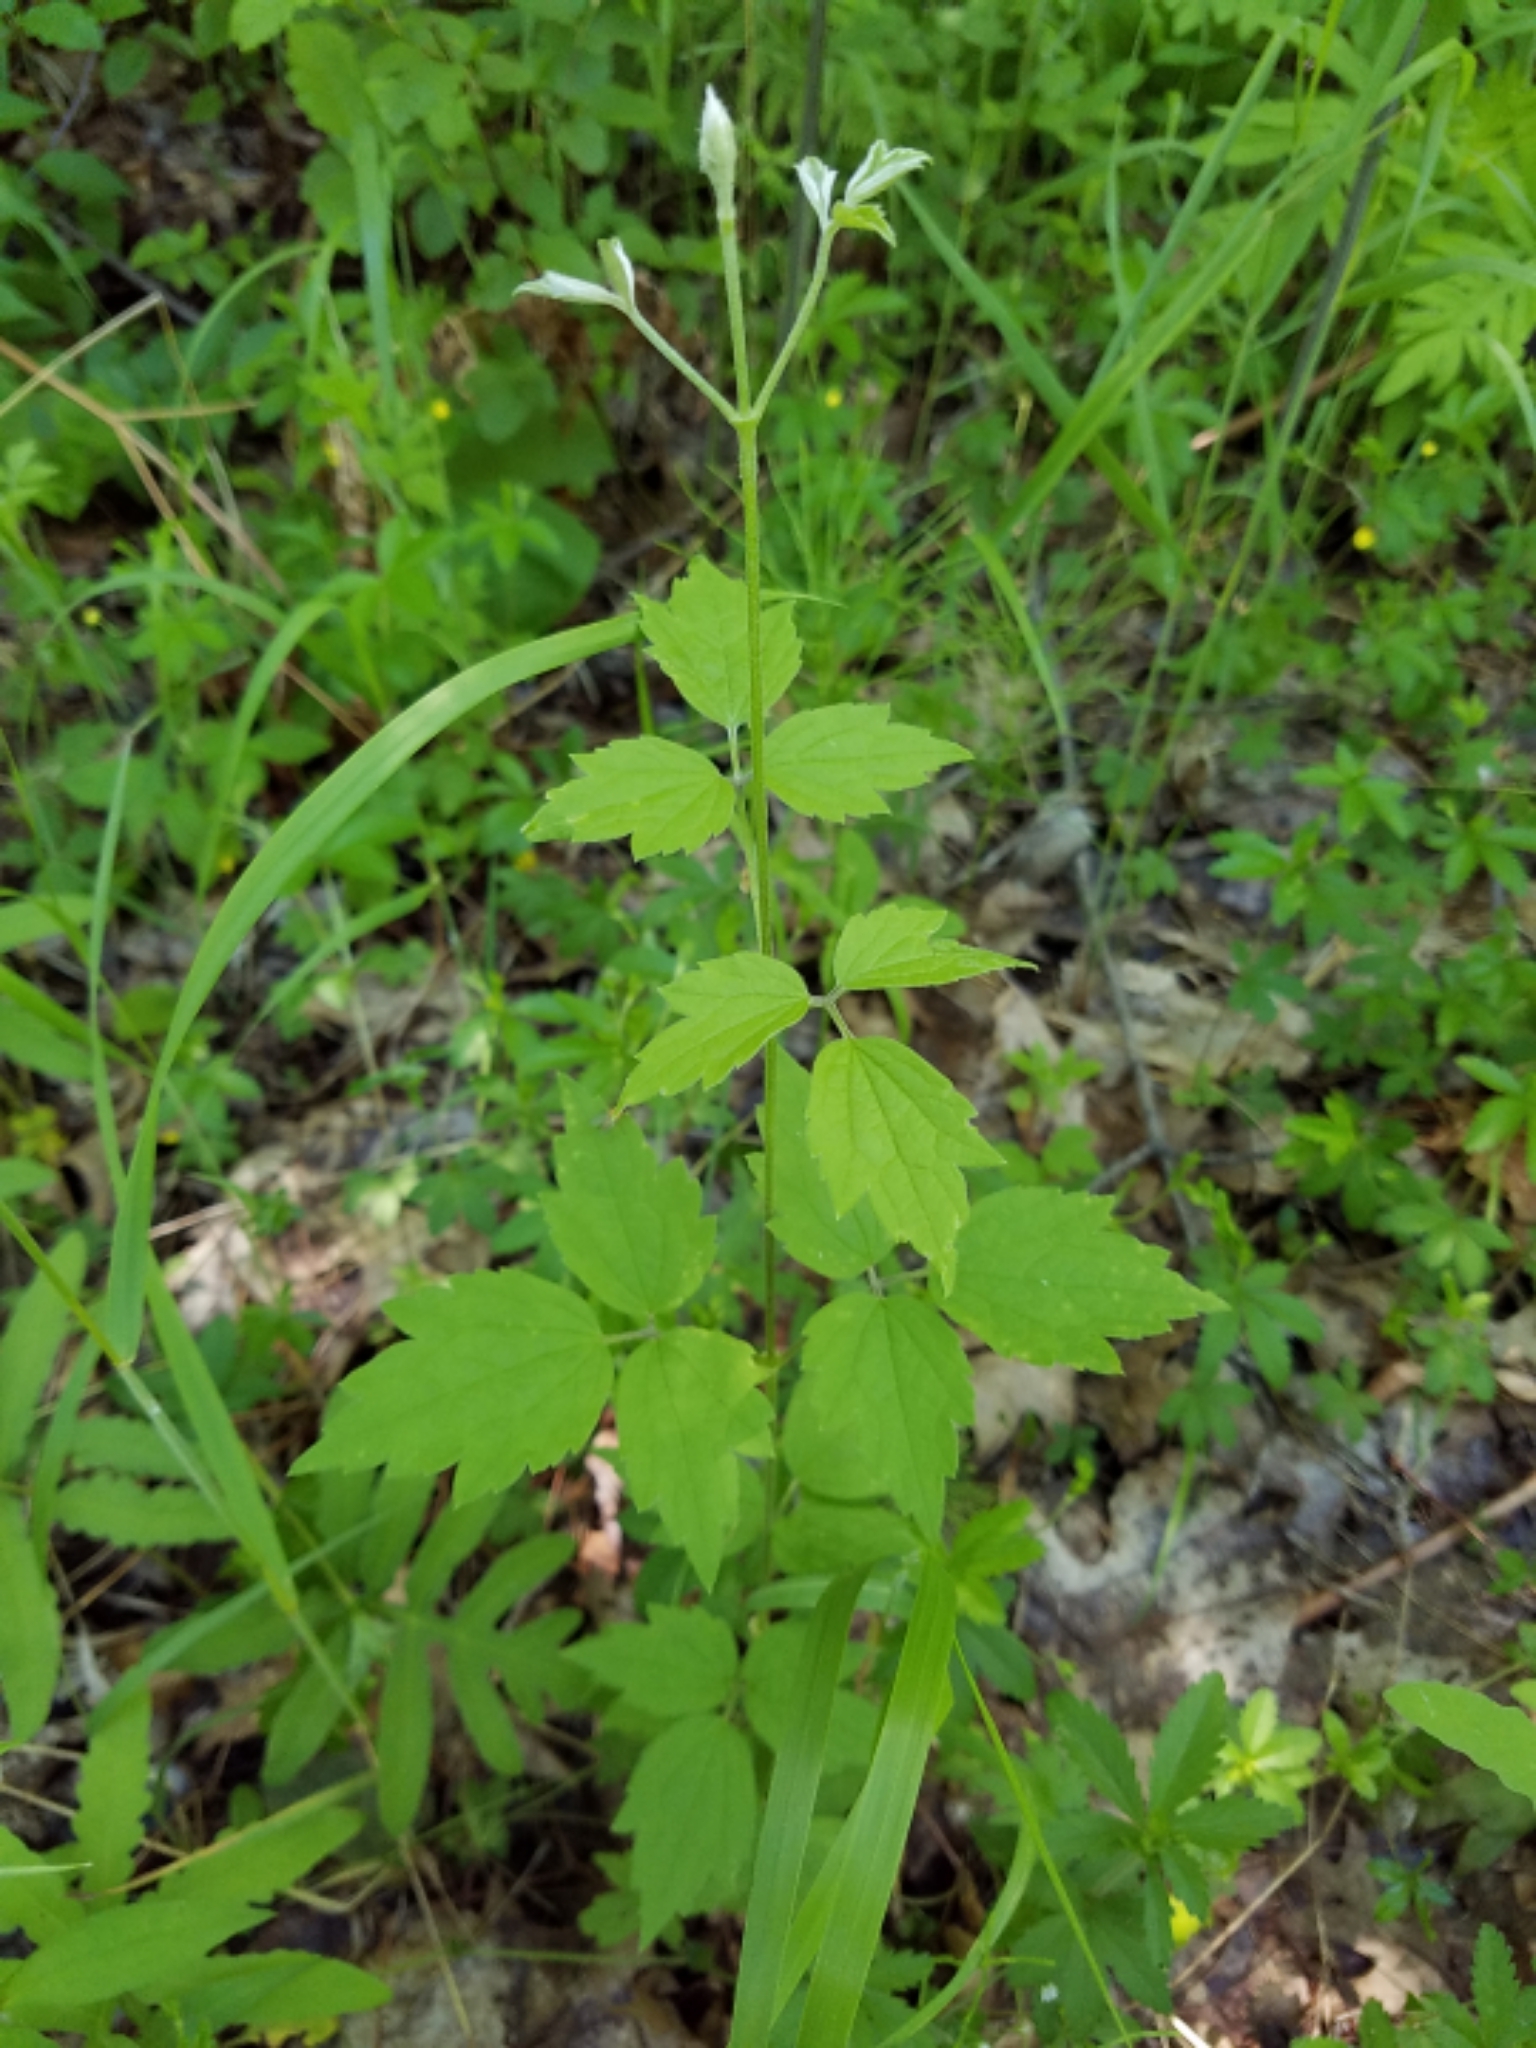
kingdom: Plantae
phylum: Tracheophyta
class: Magnoliopsida
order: Ranunculales
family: Ranunculaceae
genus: Clematis
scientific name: Clematis virginiana
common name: Virgin's-bower
